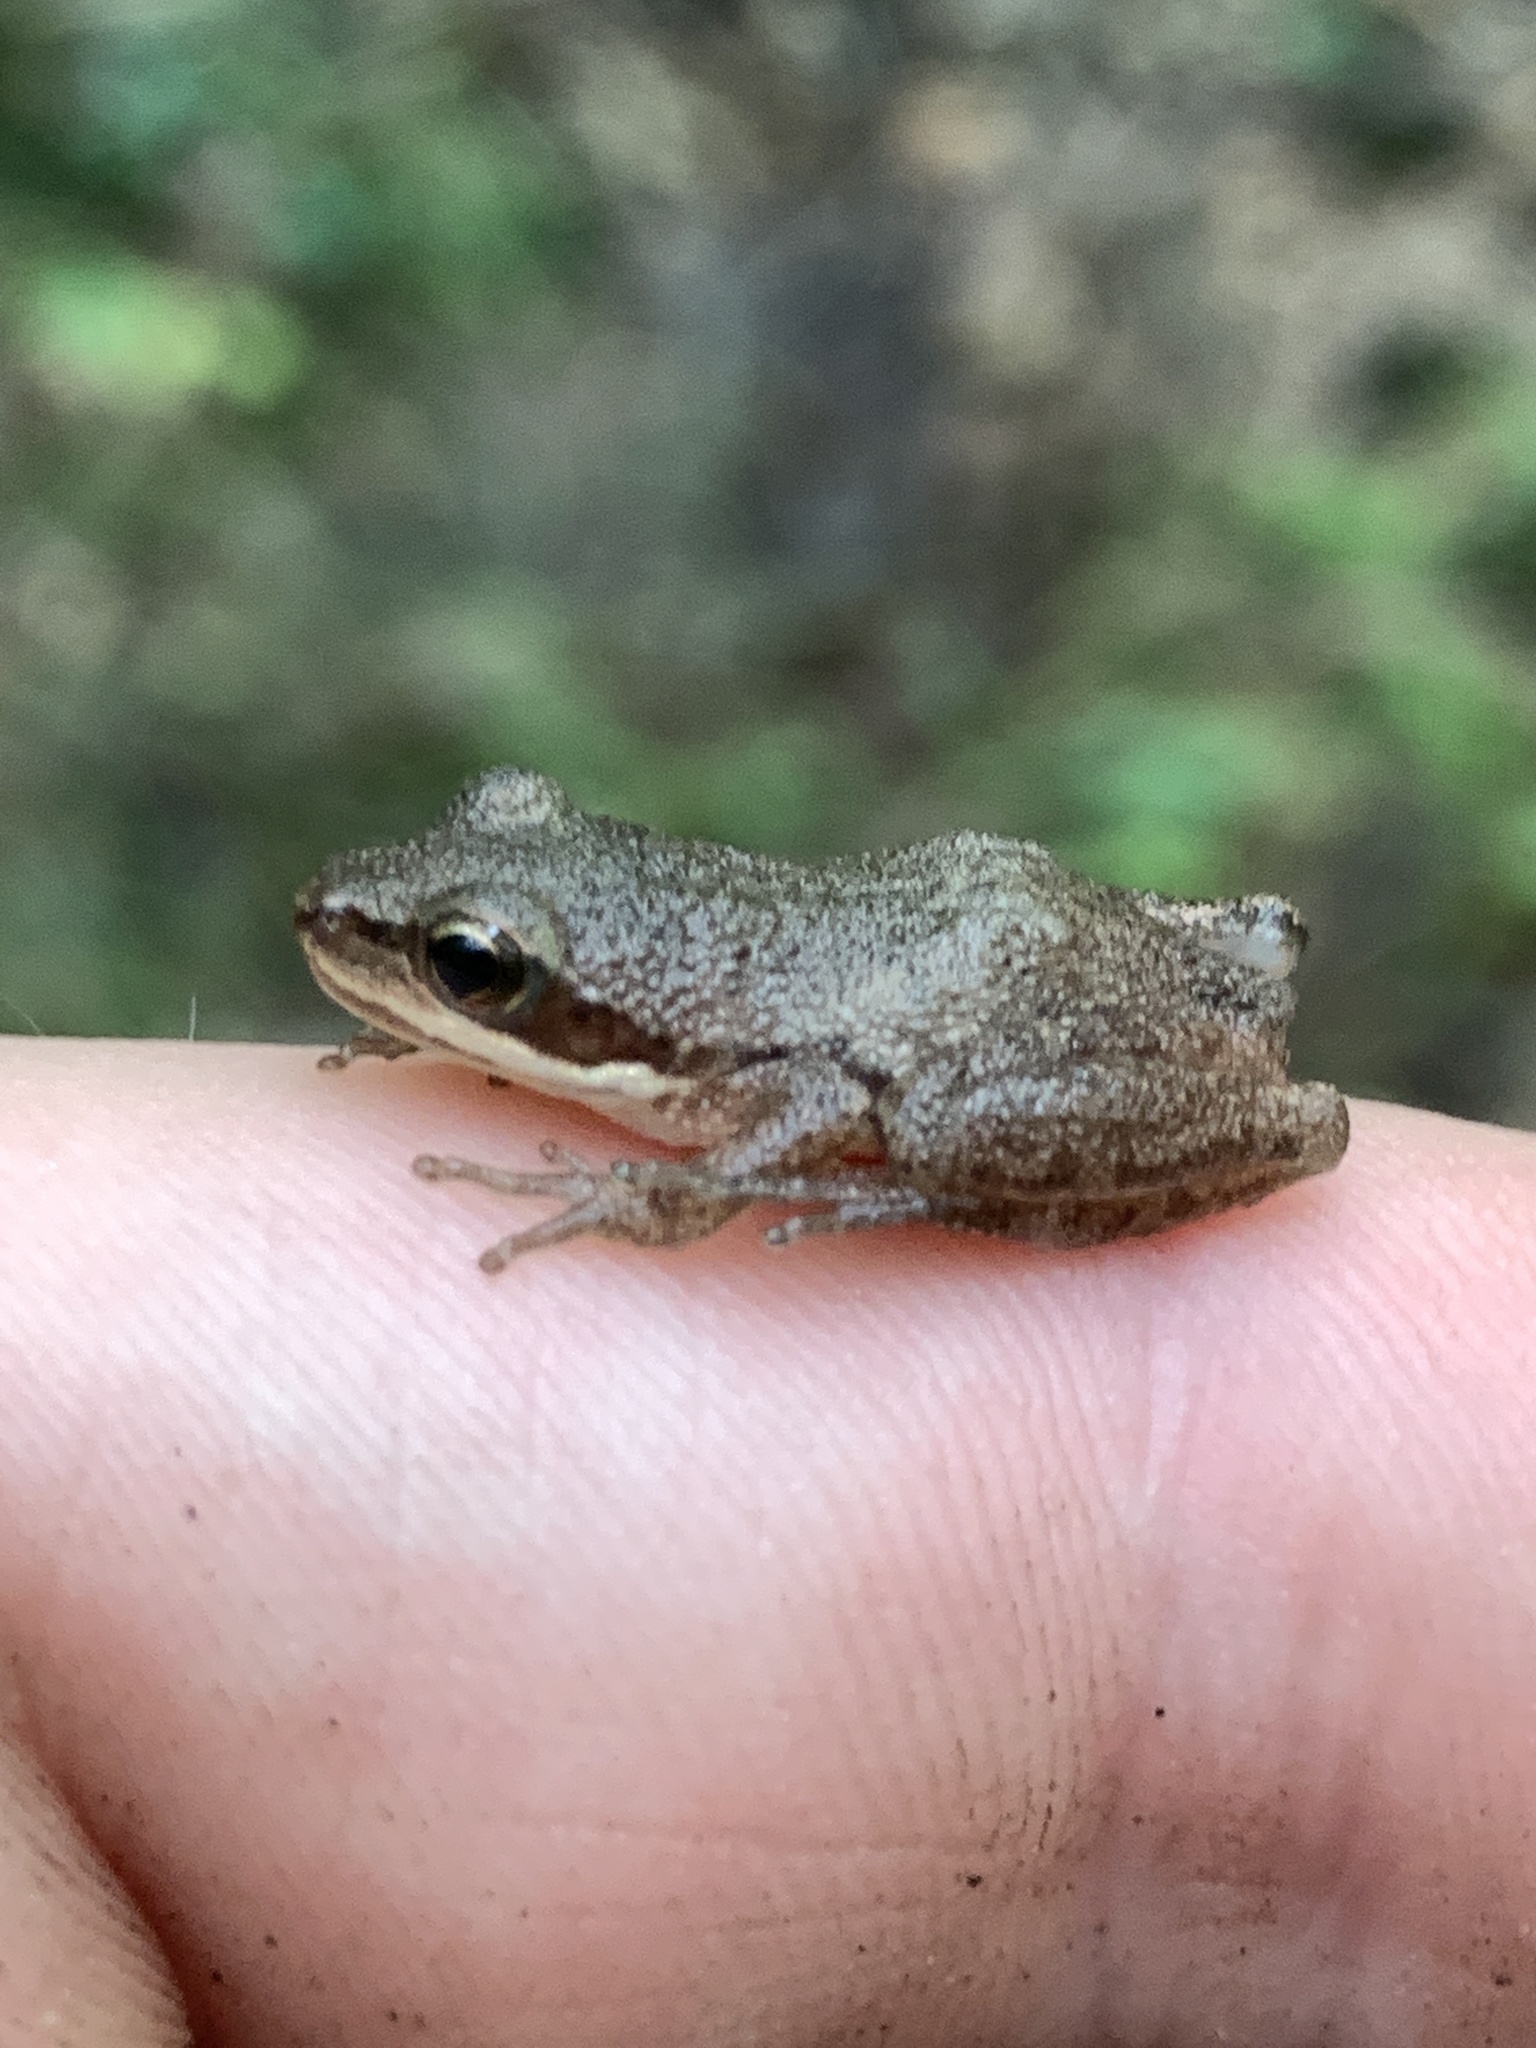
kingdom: Animalia
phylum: Chordata
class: Amphibia
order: Anura
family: Hylidae
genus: Pseudacris
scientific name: Pseudacris feriarum
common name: Upland chorus frog
